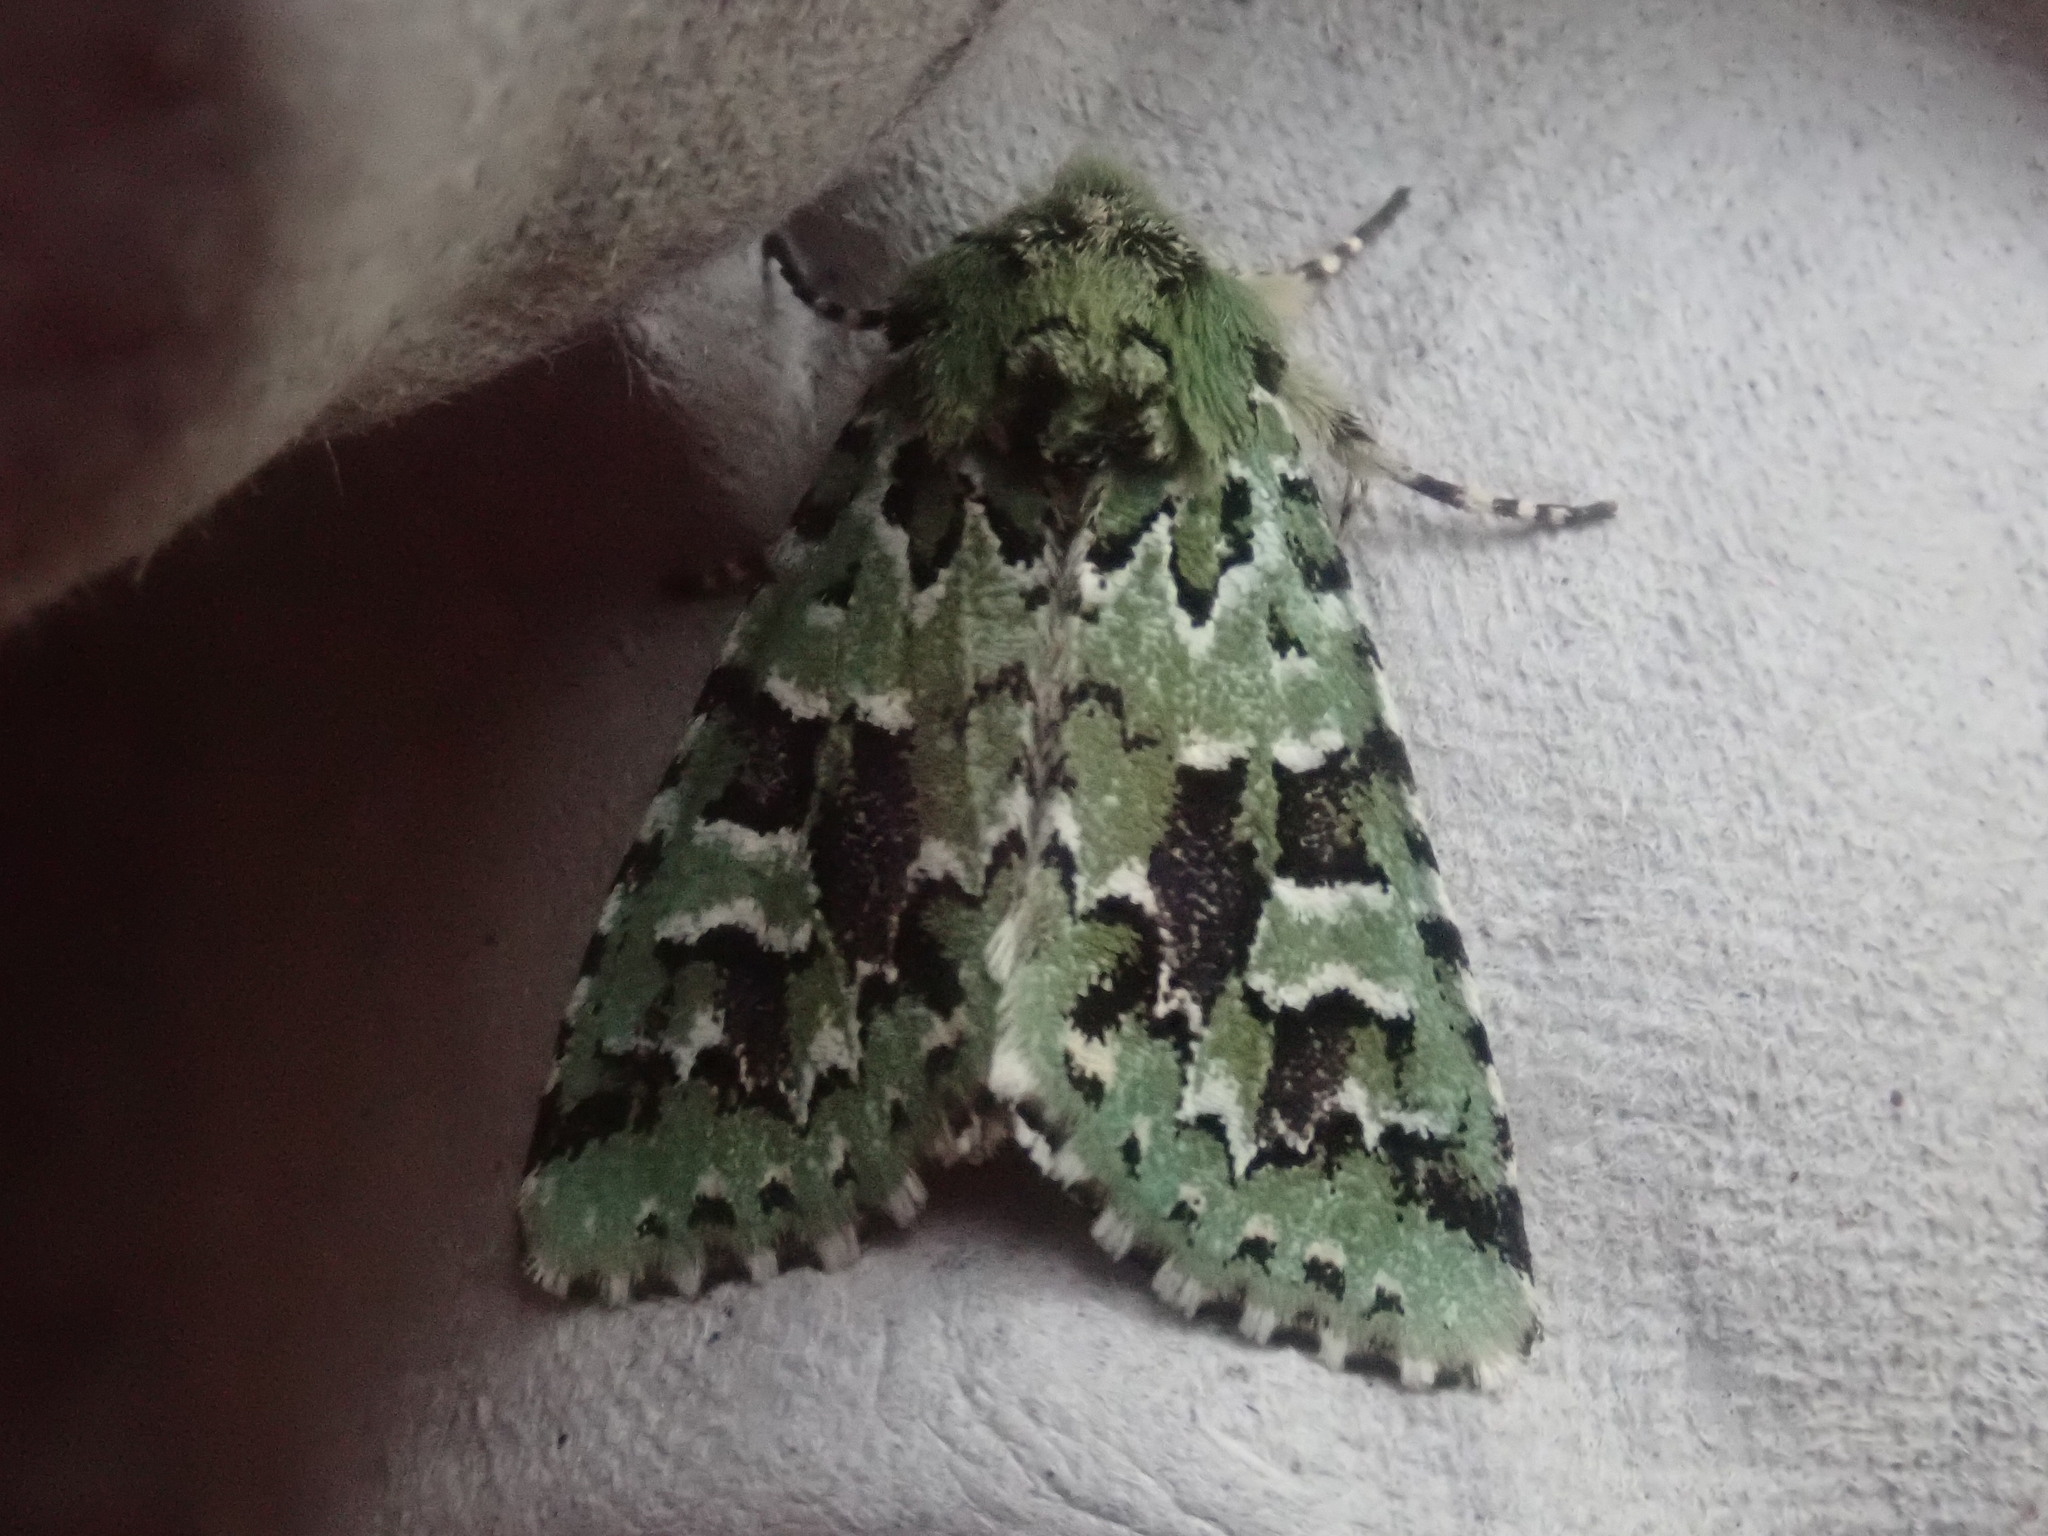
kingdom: Animalia
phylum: Arthropoda
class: Insecta
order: Lepidoptera
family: Noctuidae
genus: Feralia
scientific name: Feralia comstocki
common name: Comstock's sallow
